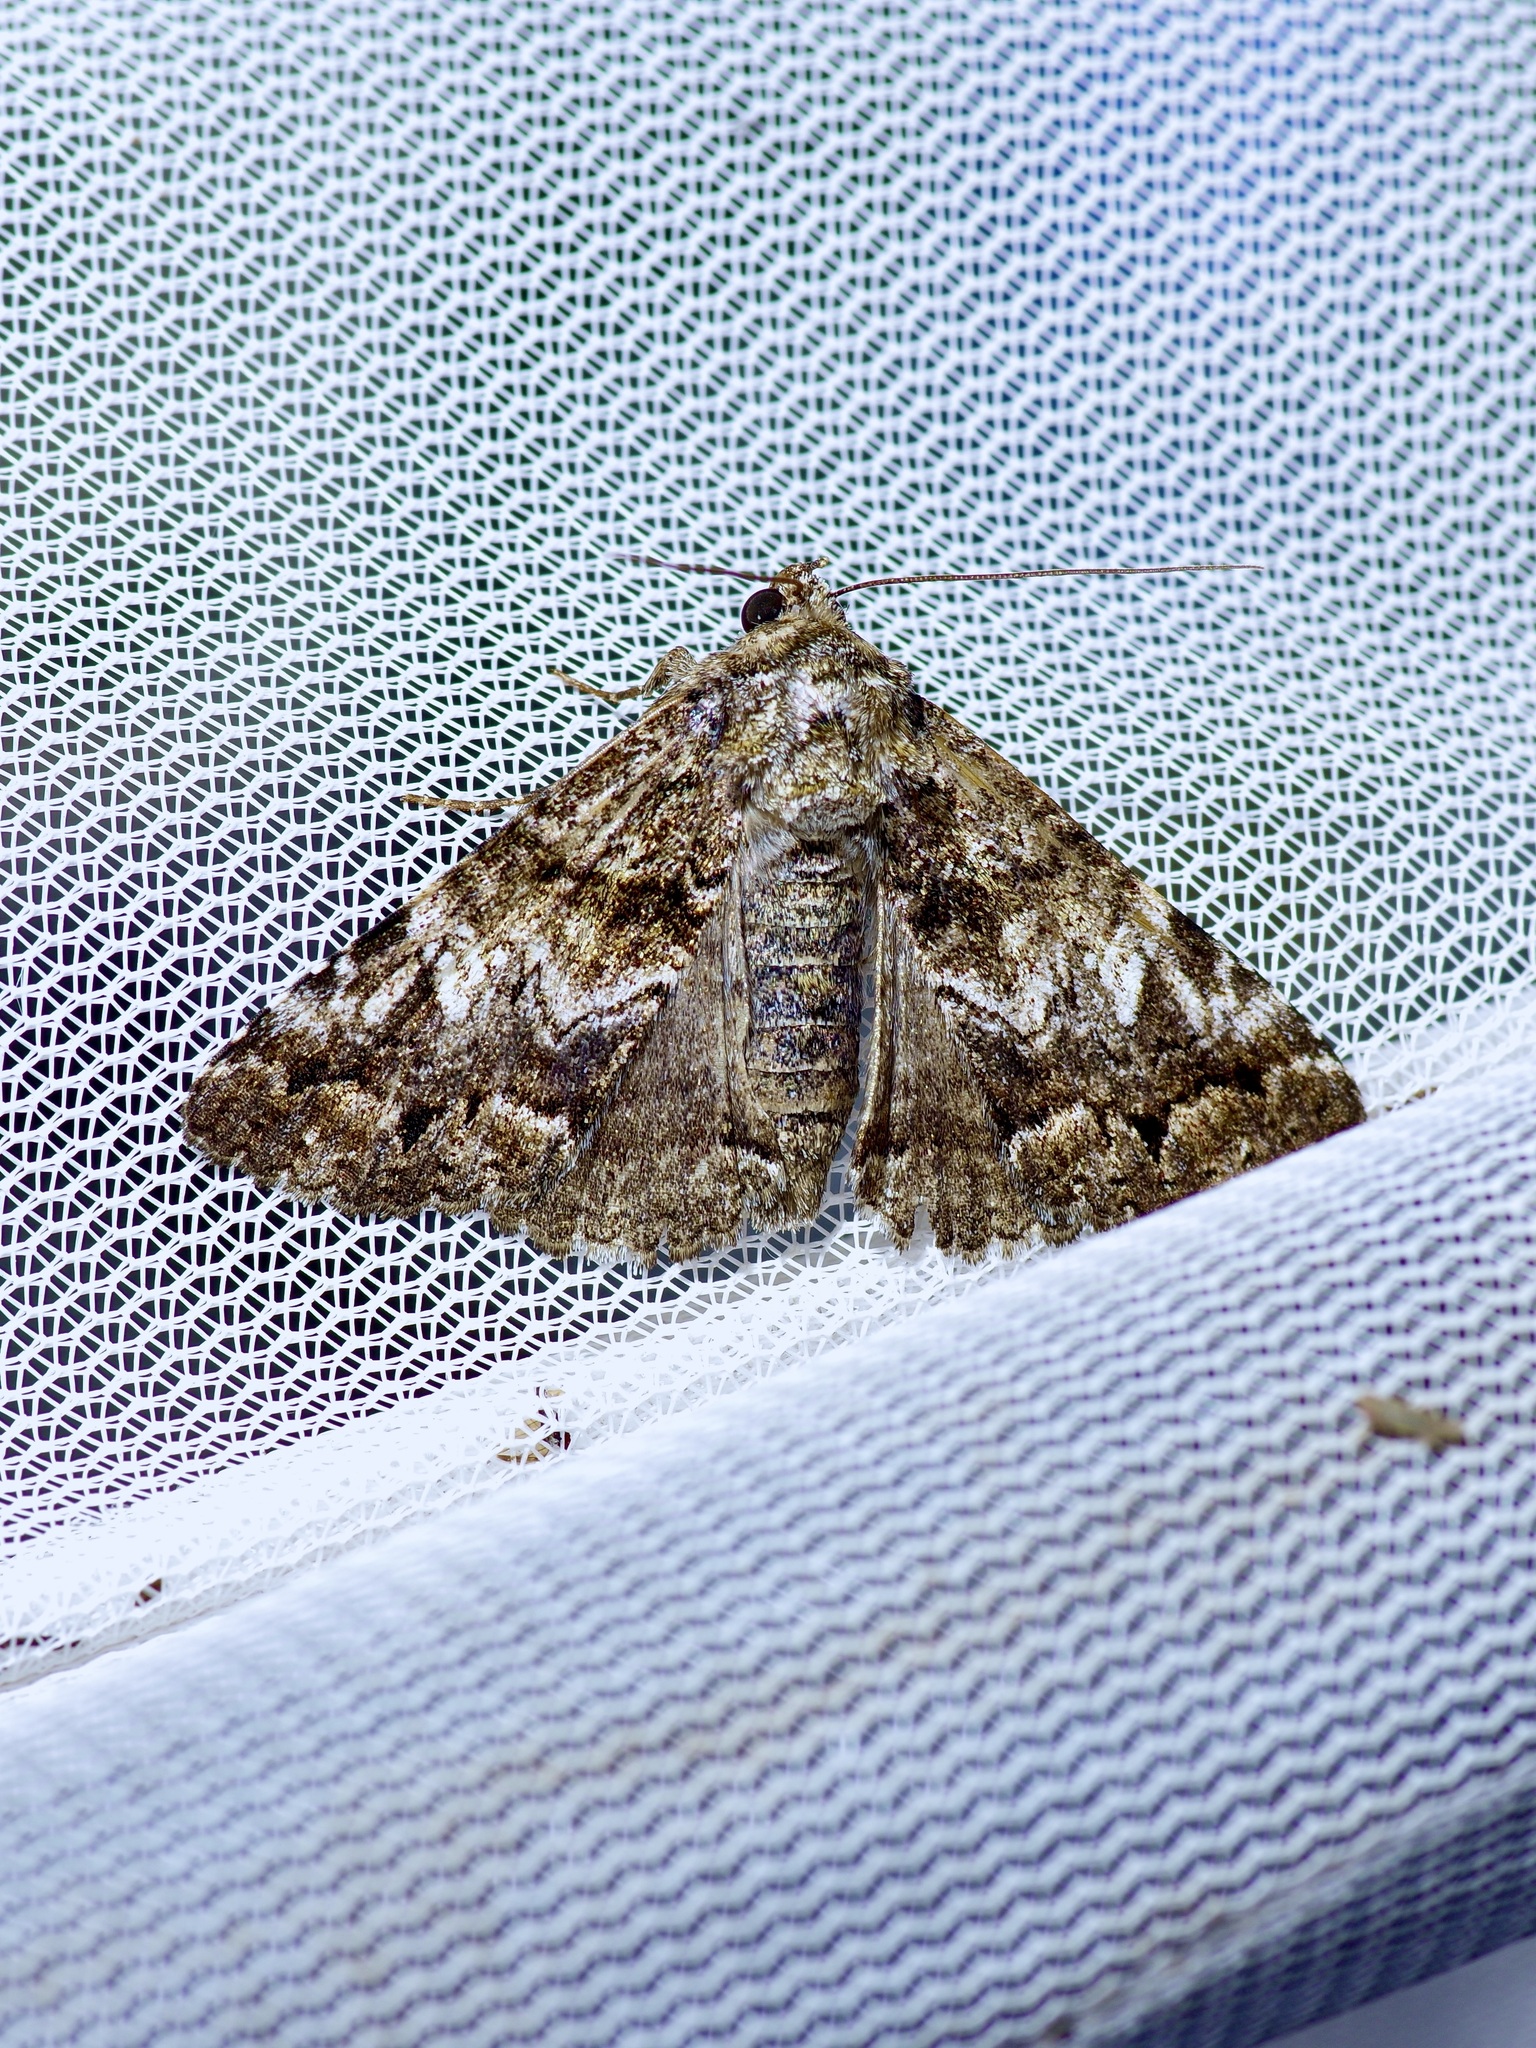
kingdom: Animalia
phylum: Arthropoda
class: Insecta
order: Lepidoptera
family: Erebidae
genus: Metria
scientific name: Metria amella
